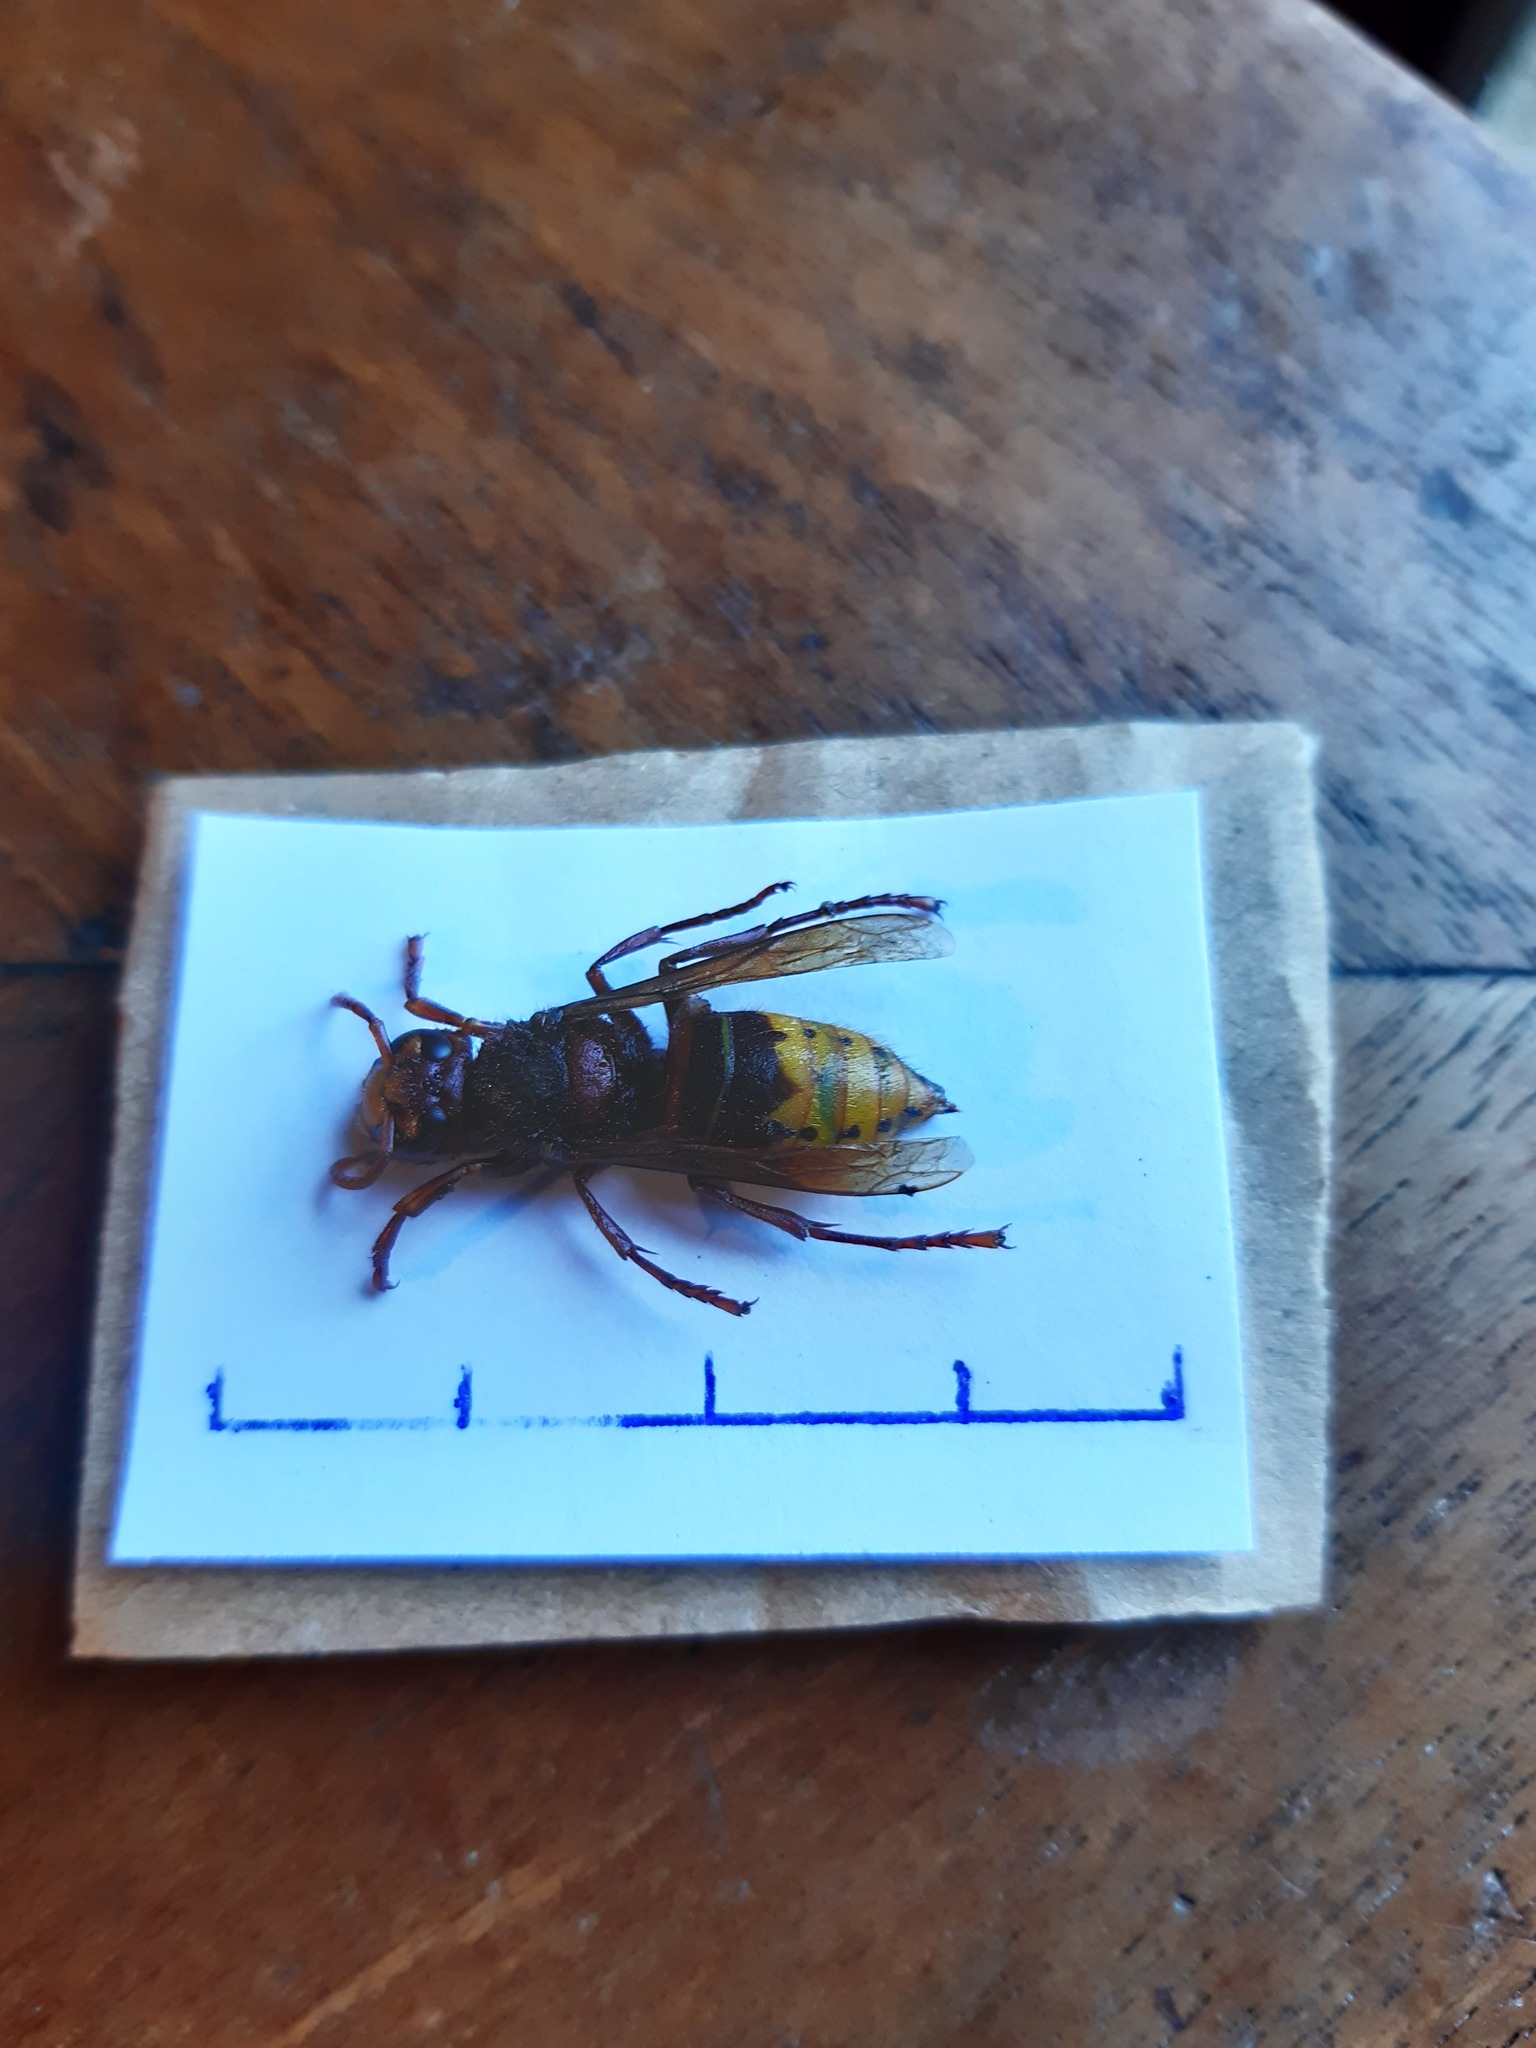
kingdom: Animalia
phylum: Arthropoda
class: Insecta
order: Hymenoptera
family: Vespidae
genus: Vespa
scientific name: Vespa crabro
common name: Hornet
